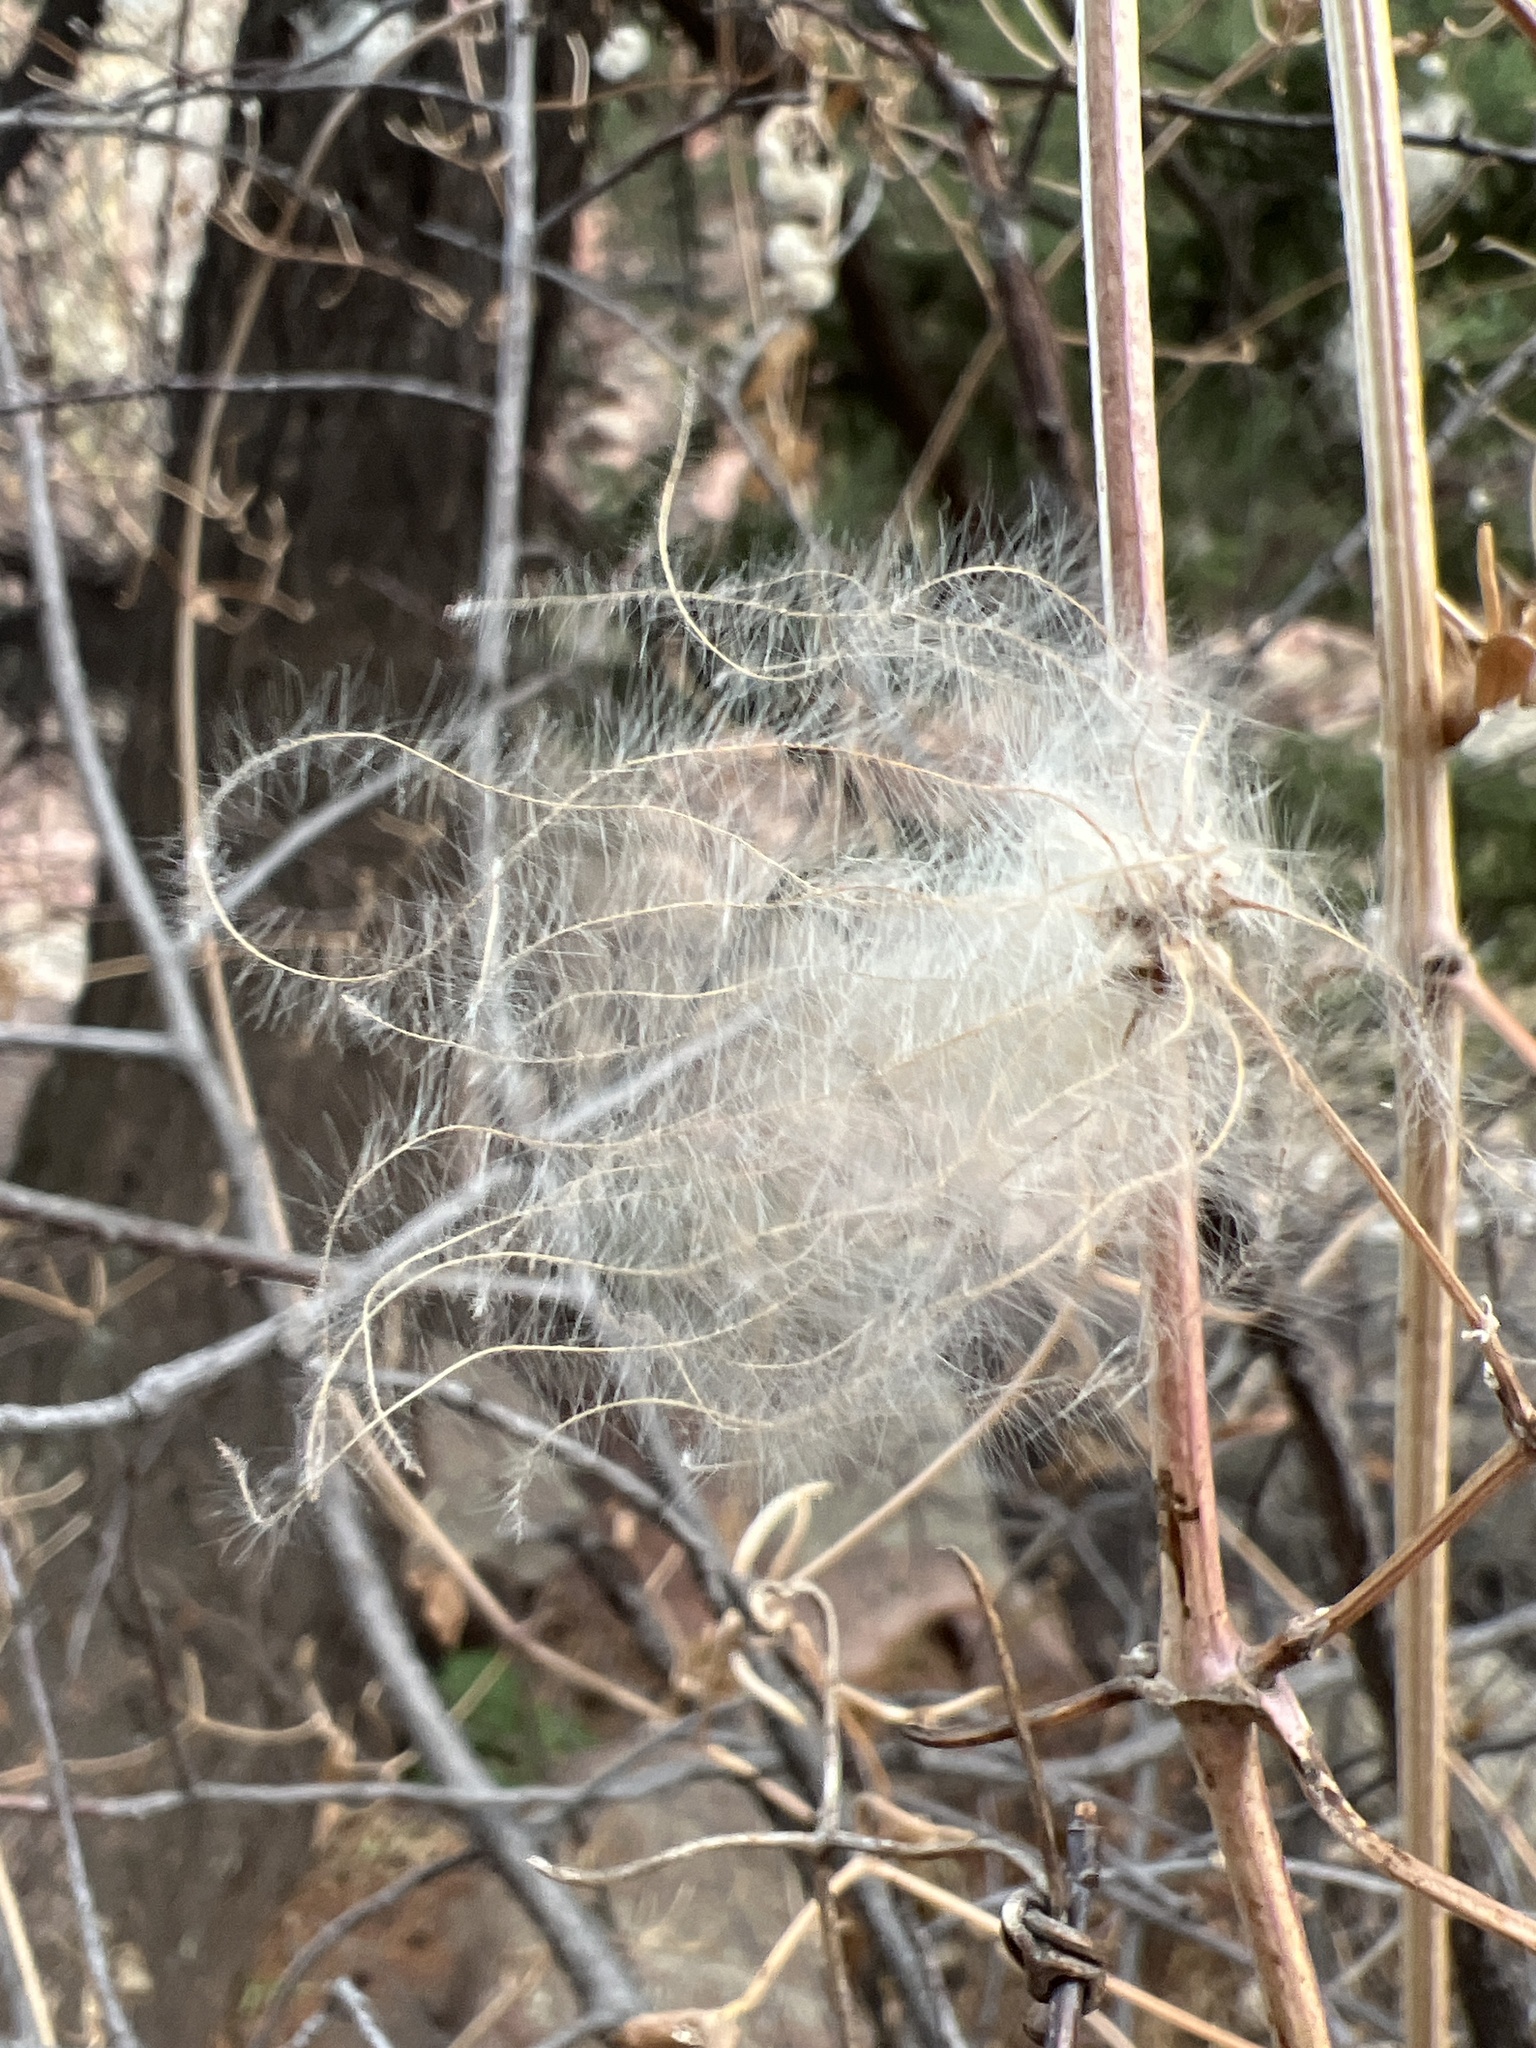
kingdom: Plantae
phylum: Tracheophyta
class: Magnoliopsida
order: Ranunculales
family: Ranunculaceae
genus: Clematis
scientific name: Clematis ligusticifolia
